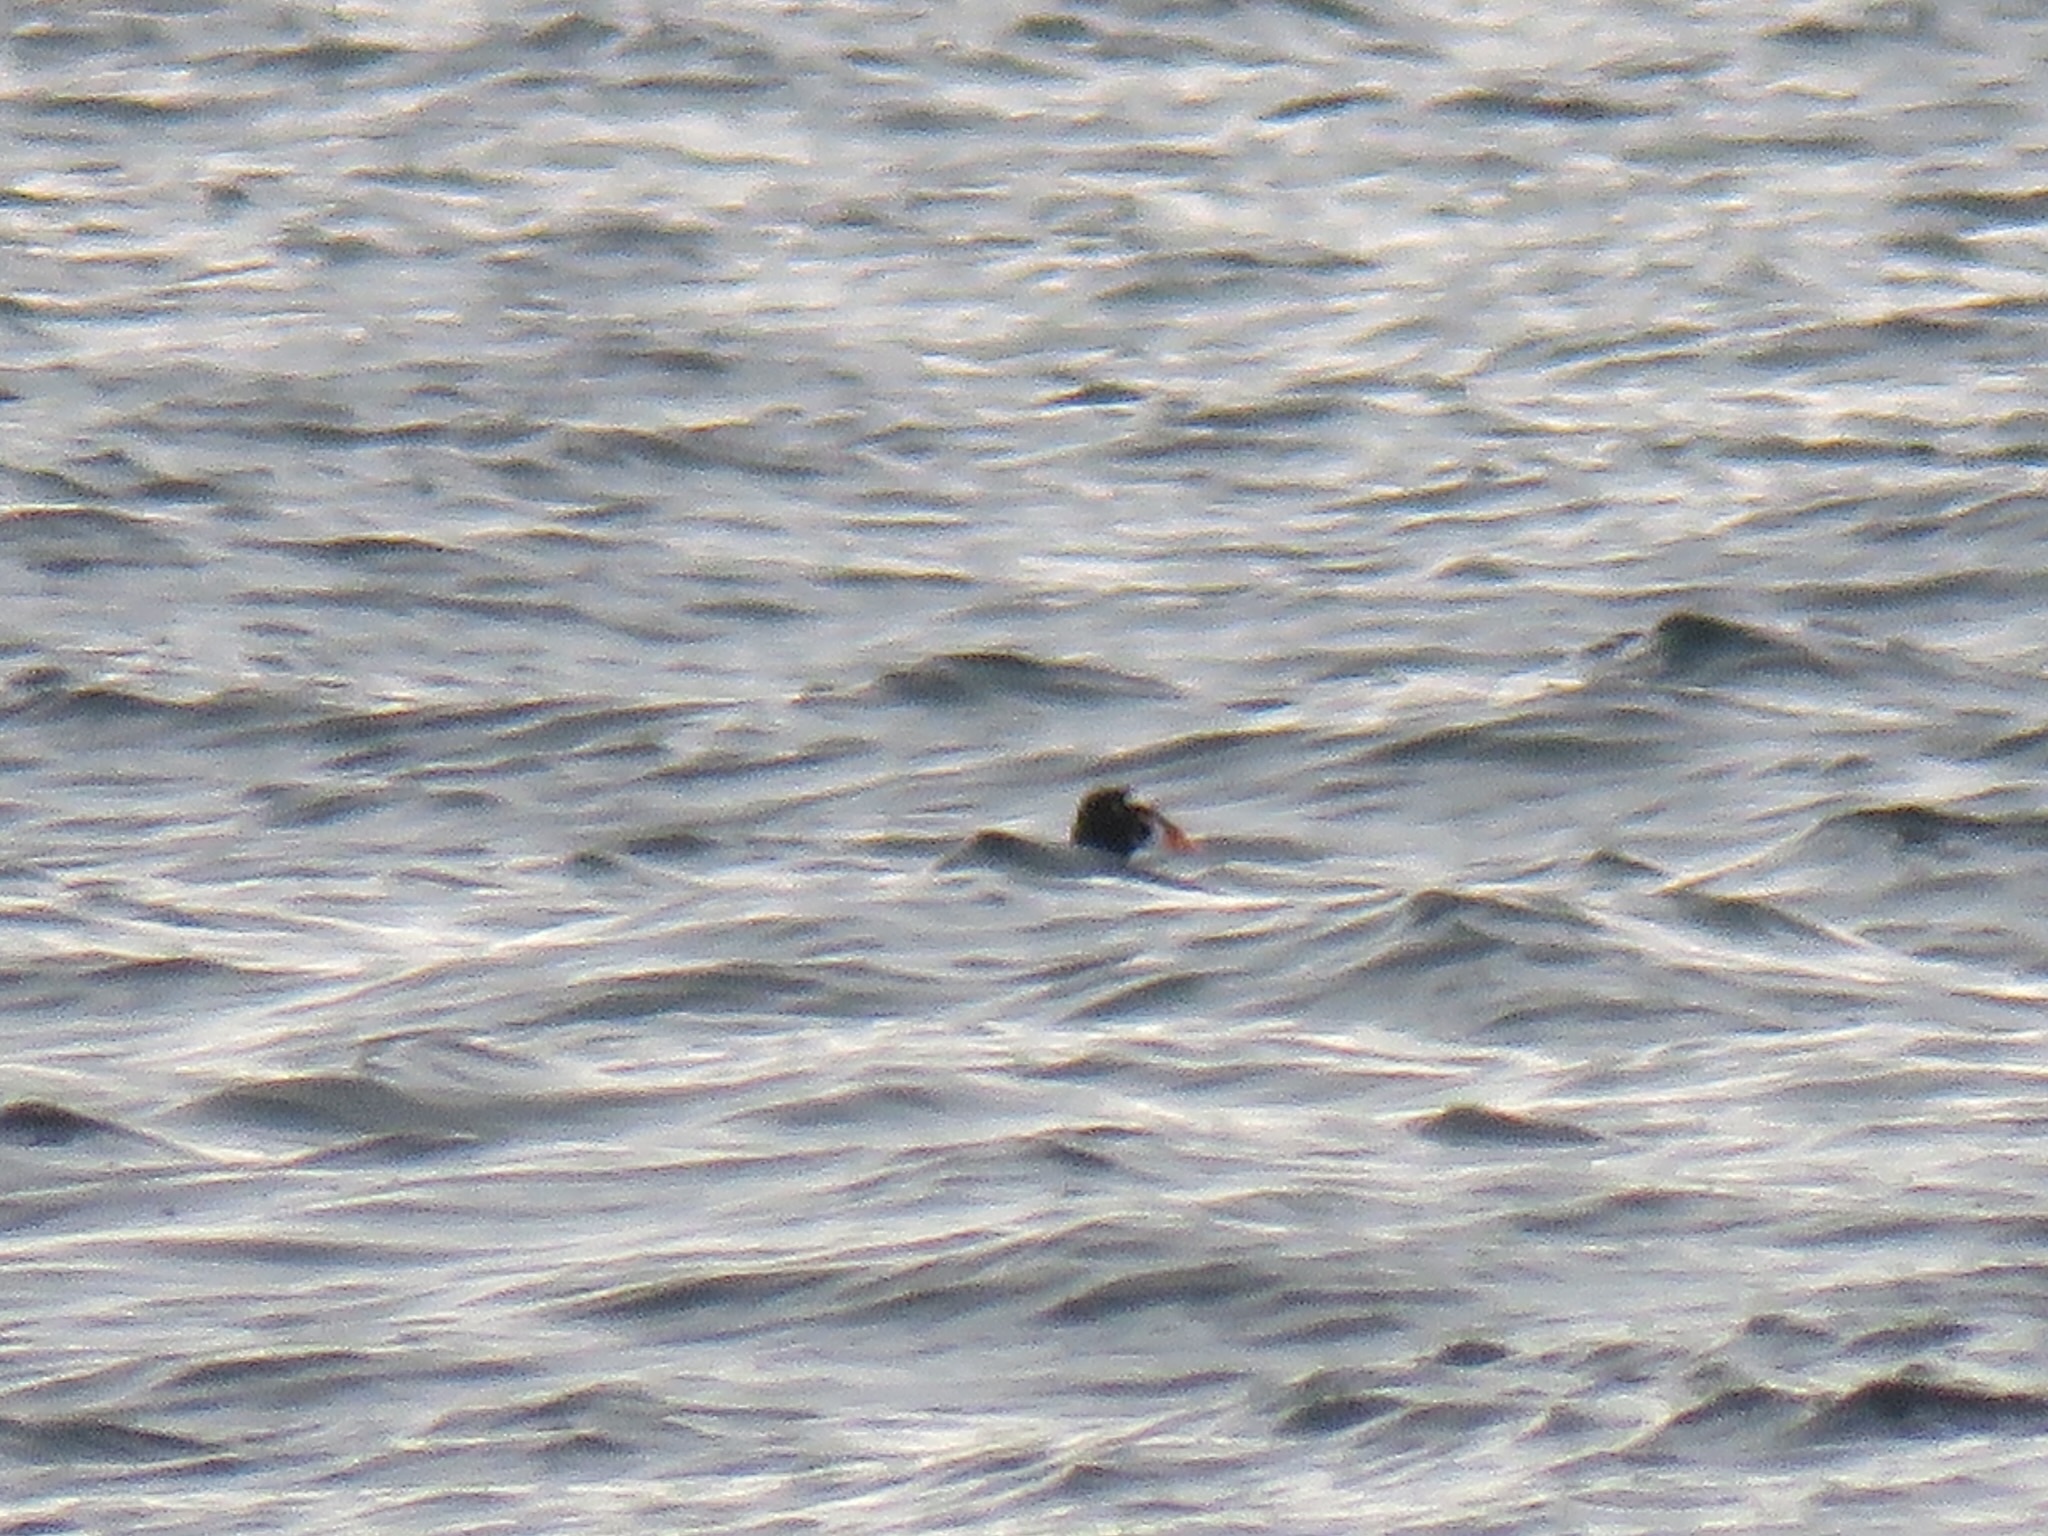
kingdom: Animalia
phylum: Chordata
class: Aves
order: Anseriformes
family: Anatidae
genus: Melanitta
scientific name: Melanitta perspicillata
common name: Surf scoter
